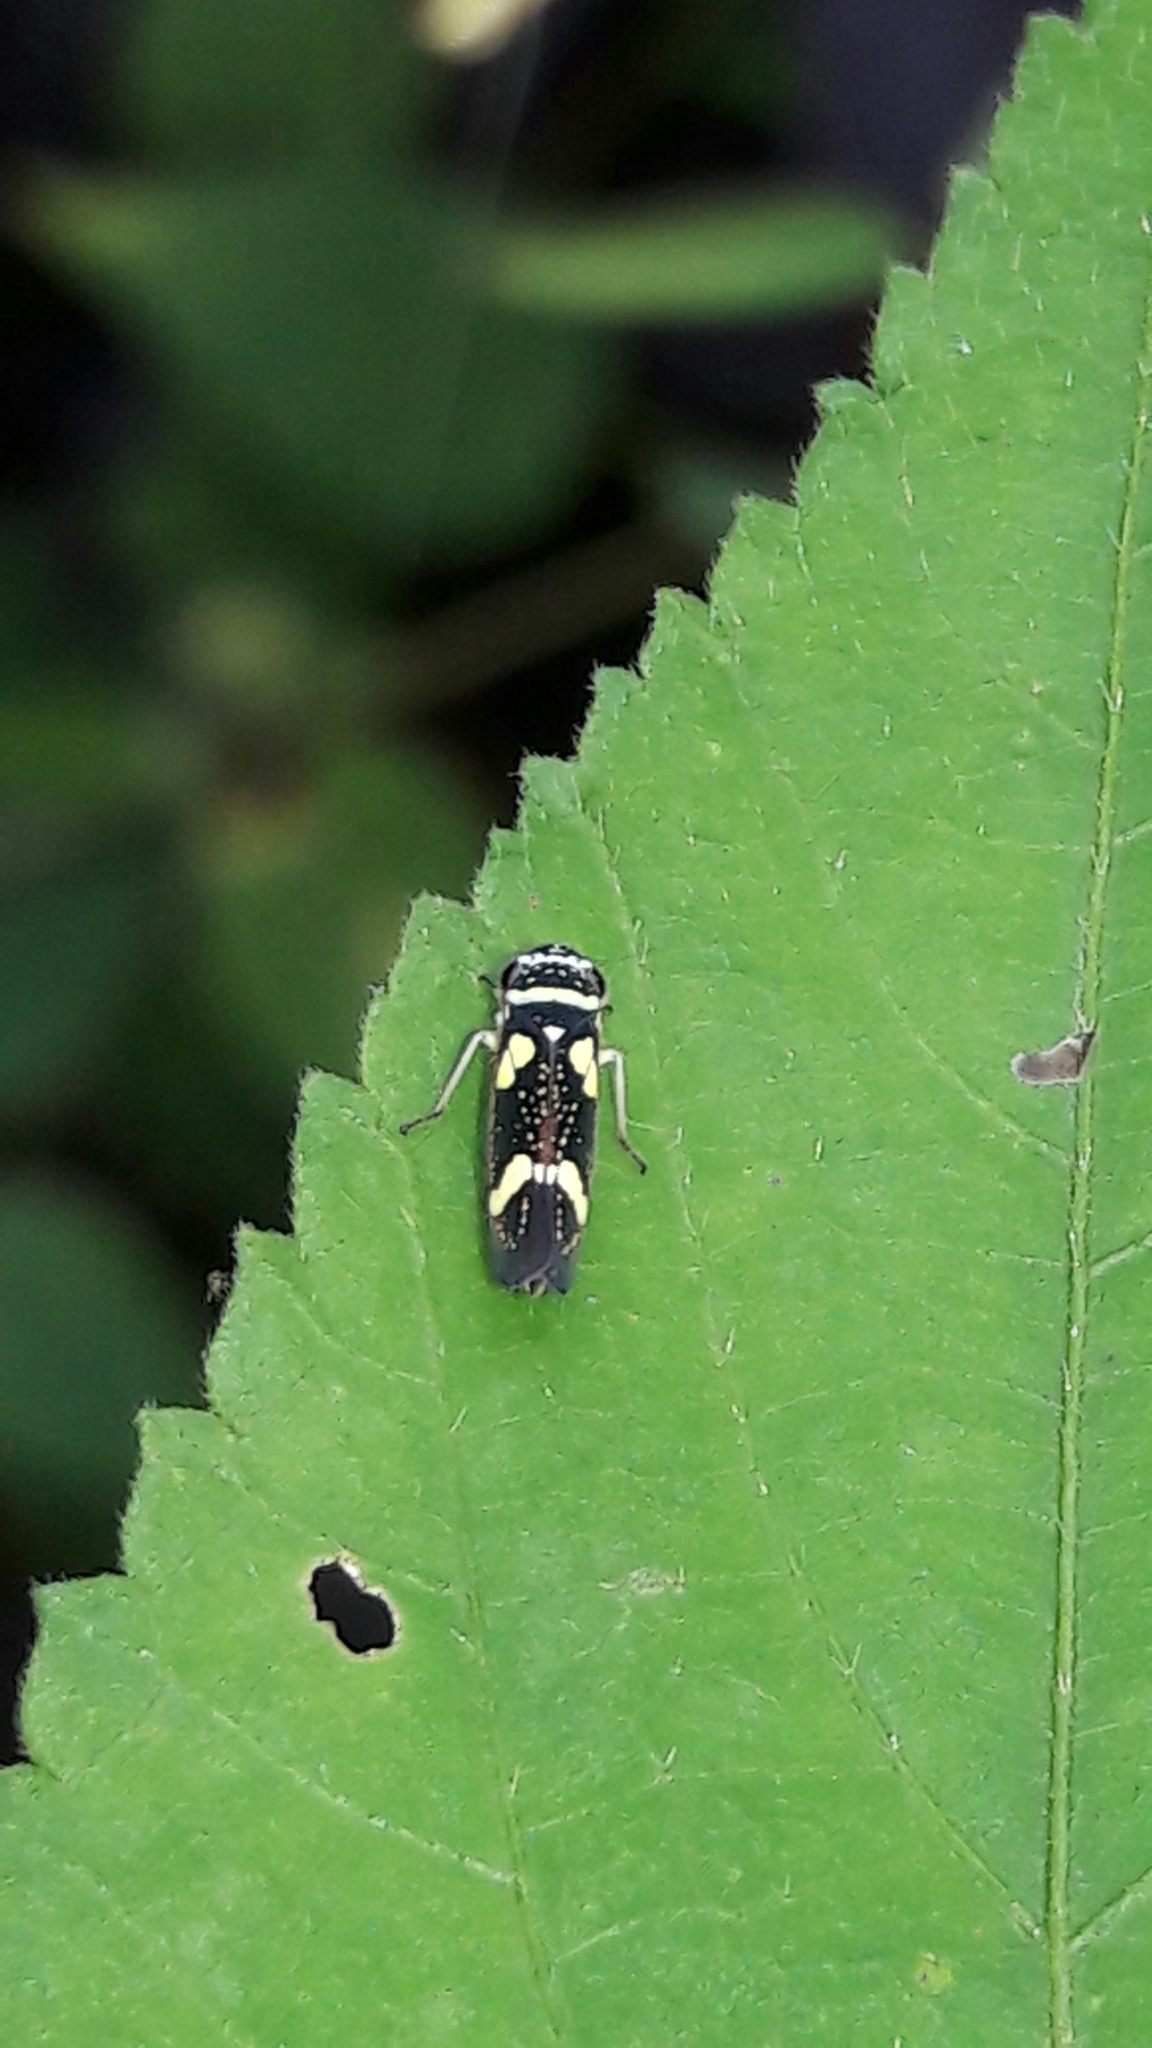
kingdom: Animalia
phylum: Arthropoda
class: Insecta
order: Hemiptera
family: Cicadellidae
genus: Macugonalia
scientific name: Macugonalia leucomelas
